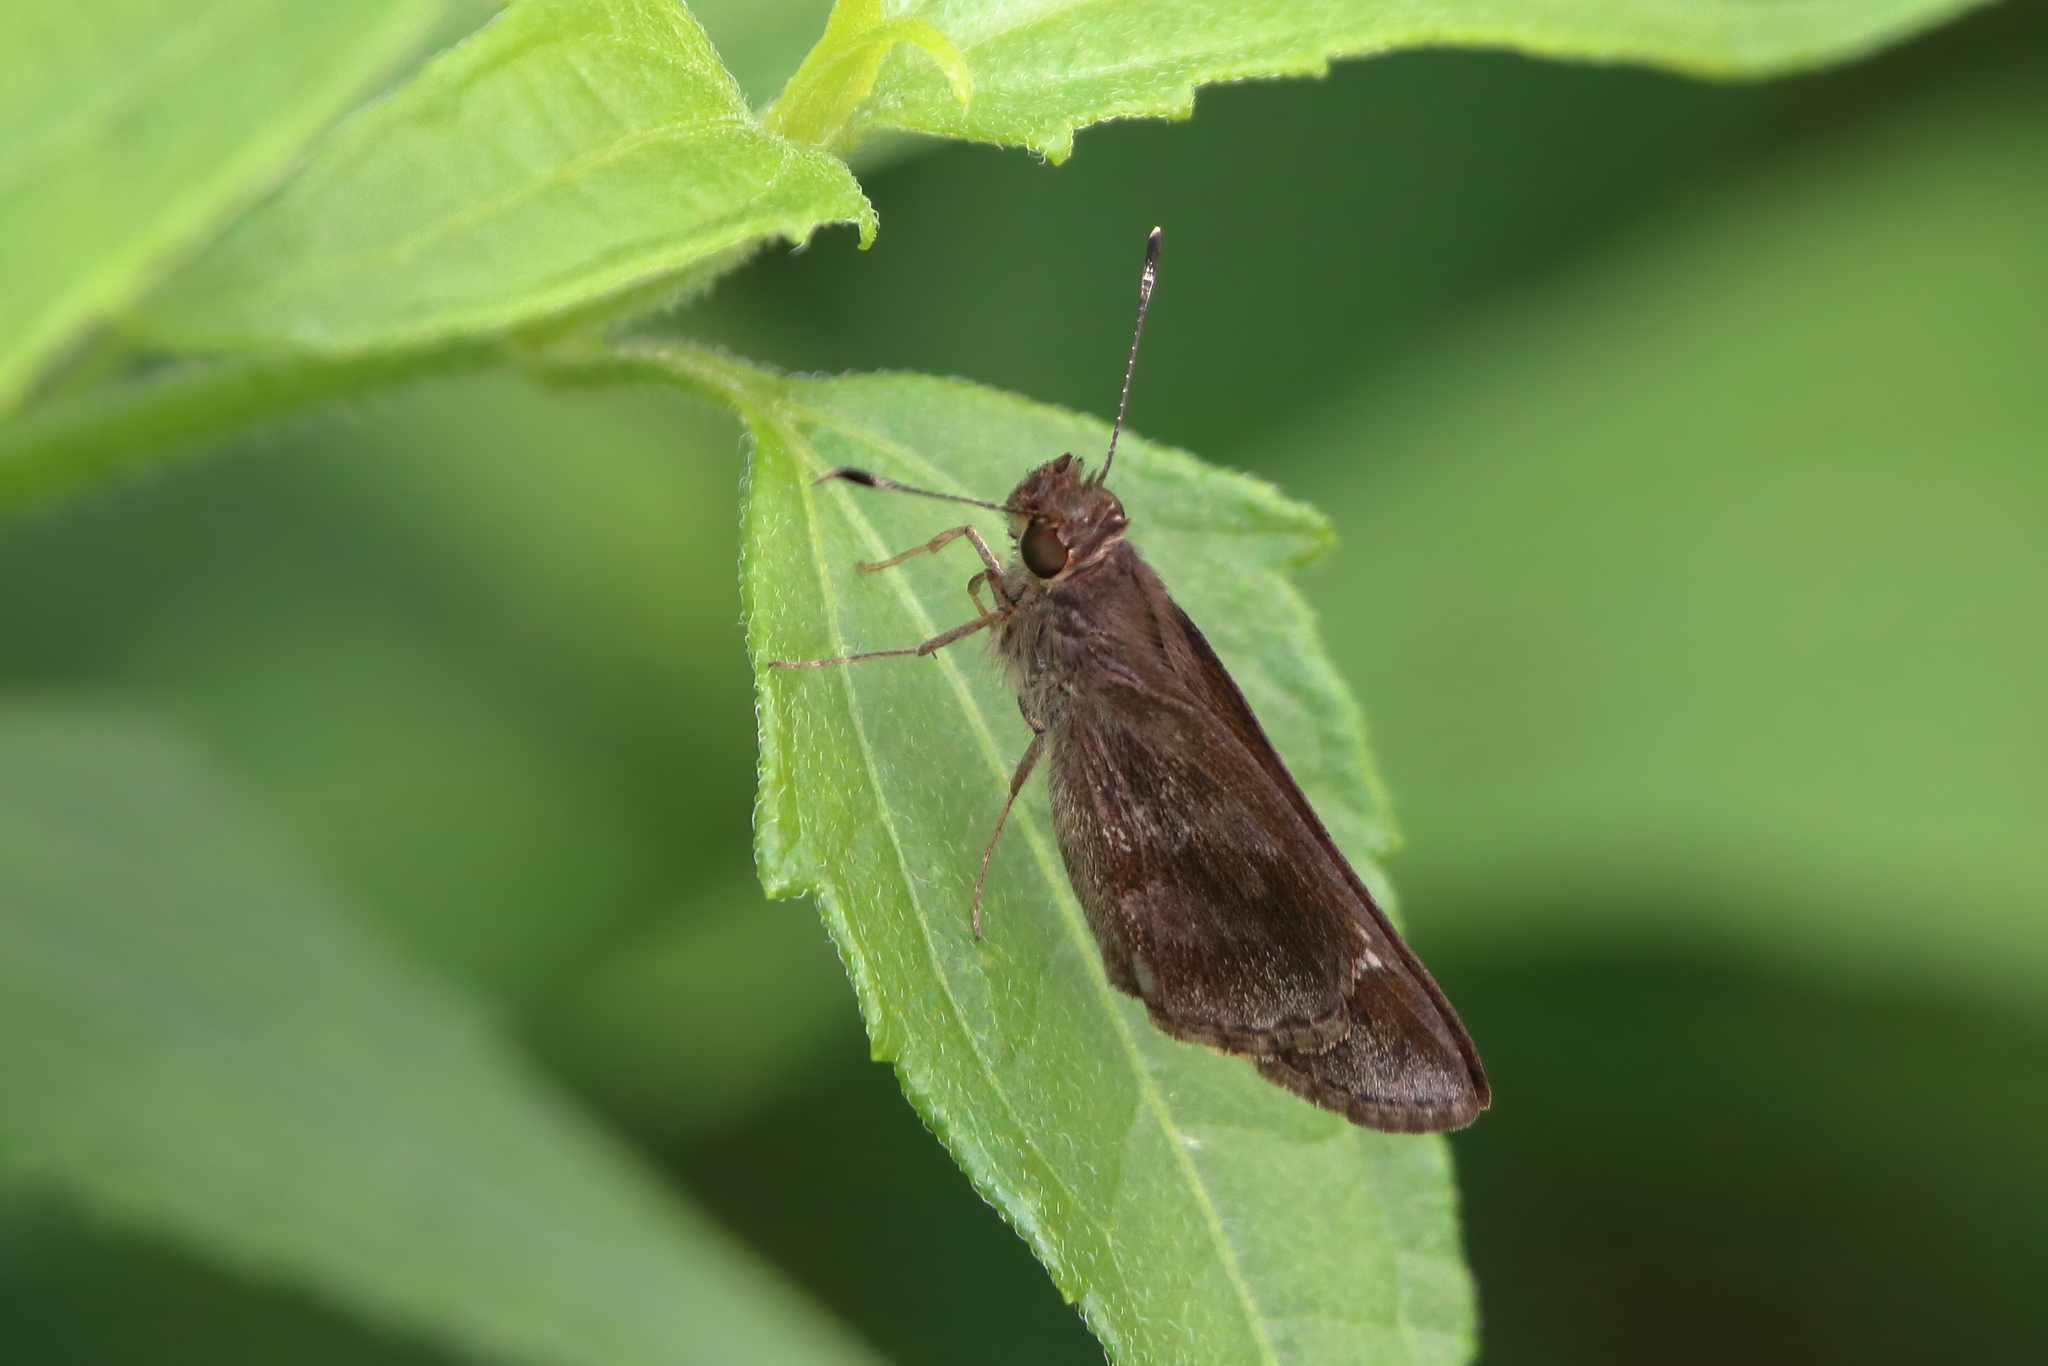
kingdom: Animalia
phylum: Arthropoda
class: Insecta
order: Lepidoptera
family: Hesperiidae
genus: Cymaenes
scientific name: Cymaenes
